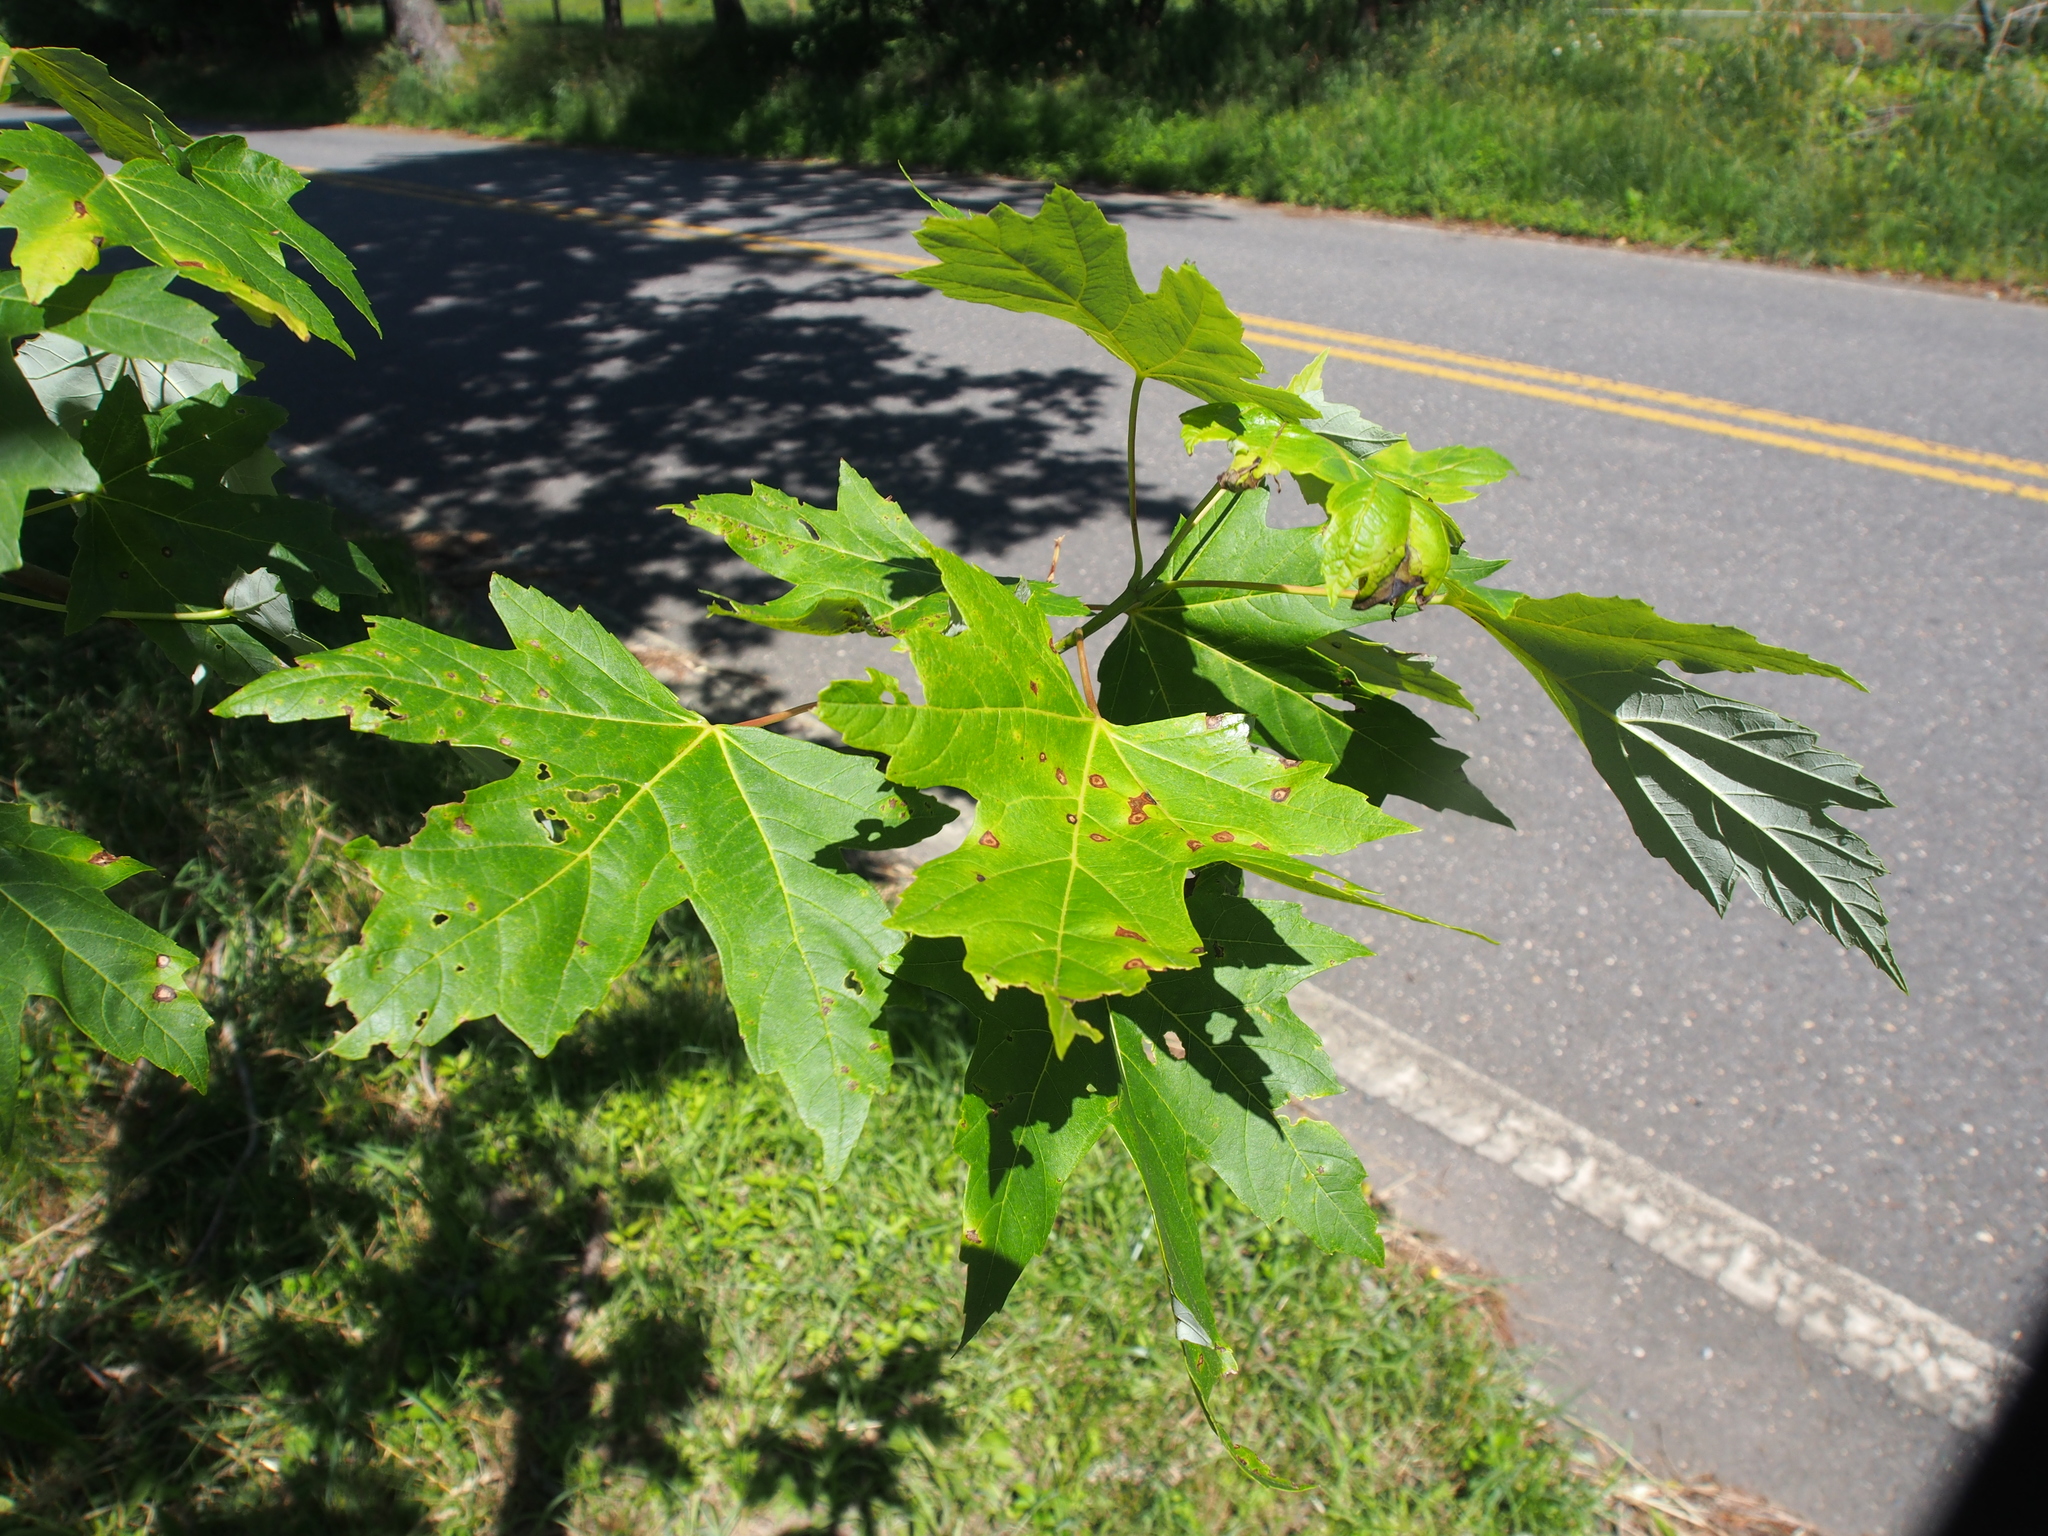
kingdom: Plantae
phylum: Tracheophyta
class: Magnoliopsida
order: Sapindales
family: Sapindaceae
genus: Acer
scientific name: Acer saccharinum
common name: Silver maple
